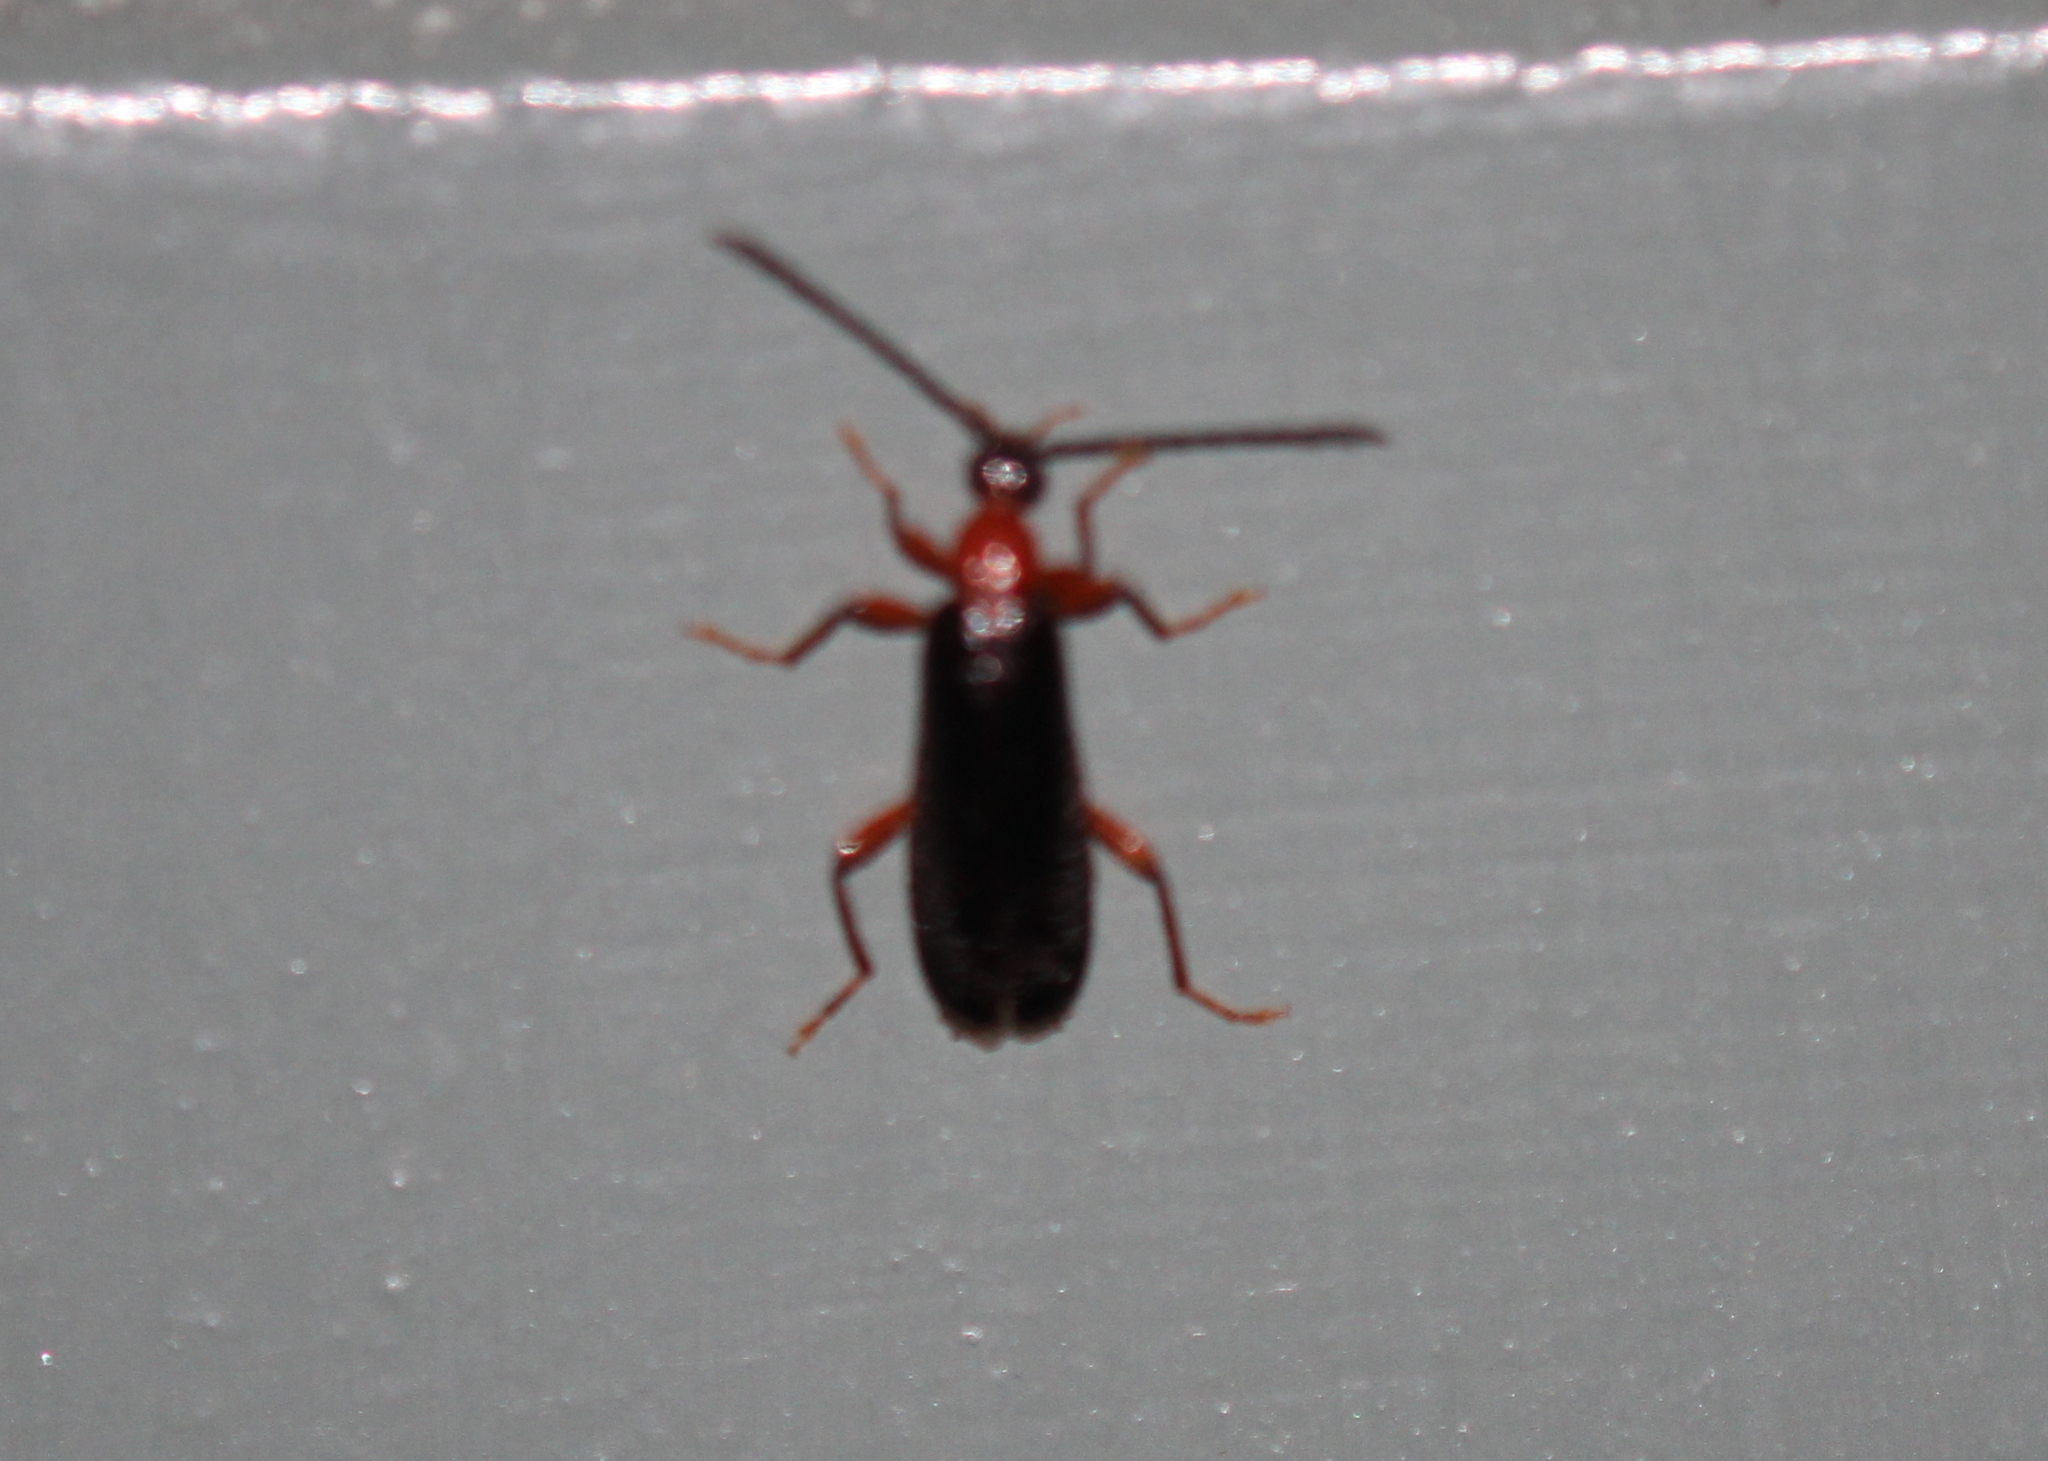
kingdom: Animalia
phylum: Arthropoda
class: Insecta
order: Coleoptera
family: Pyrochroidae
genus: Dendroides
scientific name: Dendroides canadensis
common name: Canada fire-colored beetle
